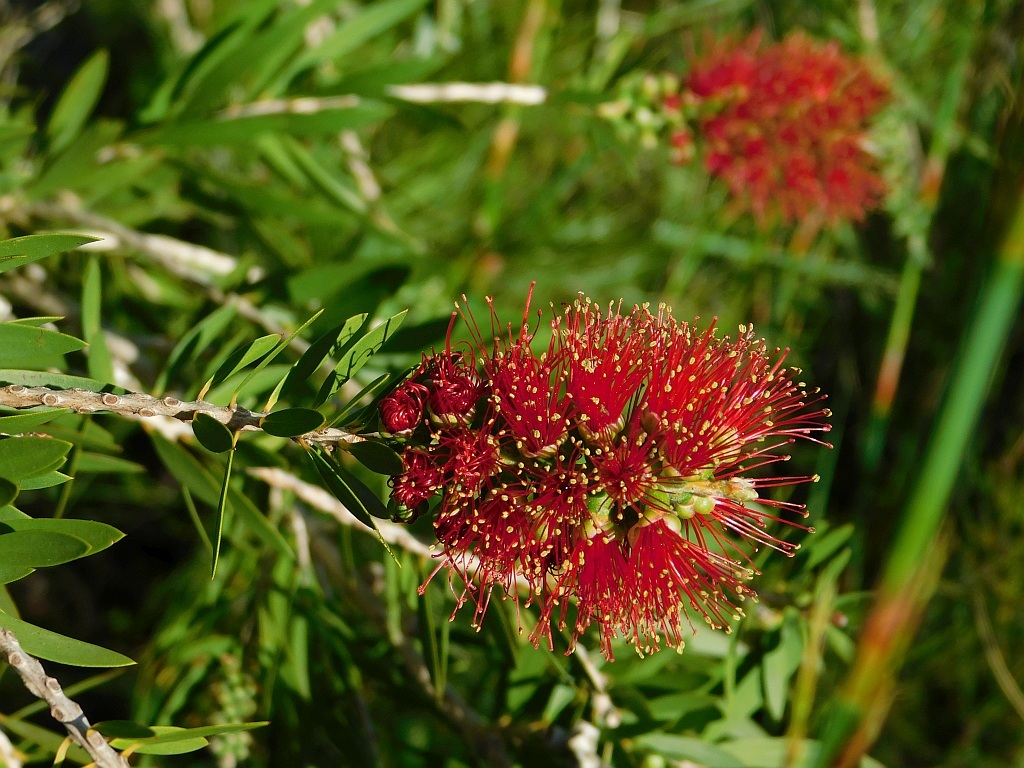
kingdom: Plantae
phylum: Tracheophyta
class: Magnoliopsida
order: Myrtales
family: Myrtaceae
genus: Callistemon
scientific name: Callistemon viminalis
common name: Drooping bottlebrush
